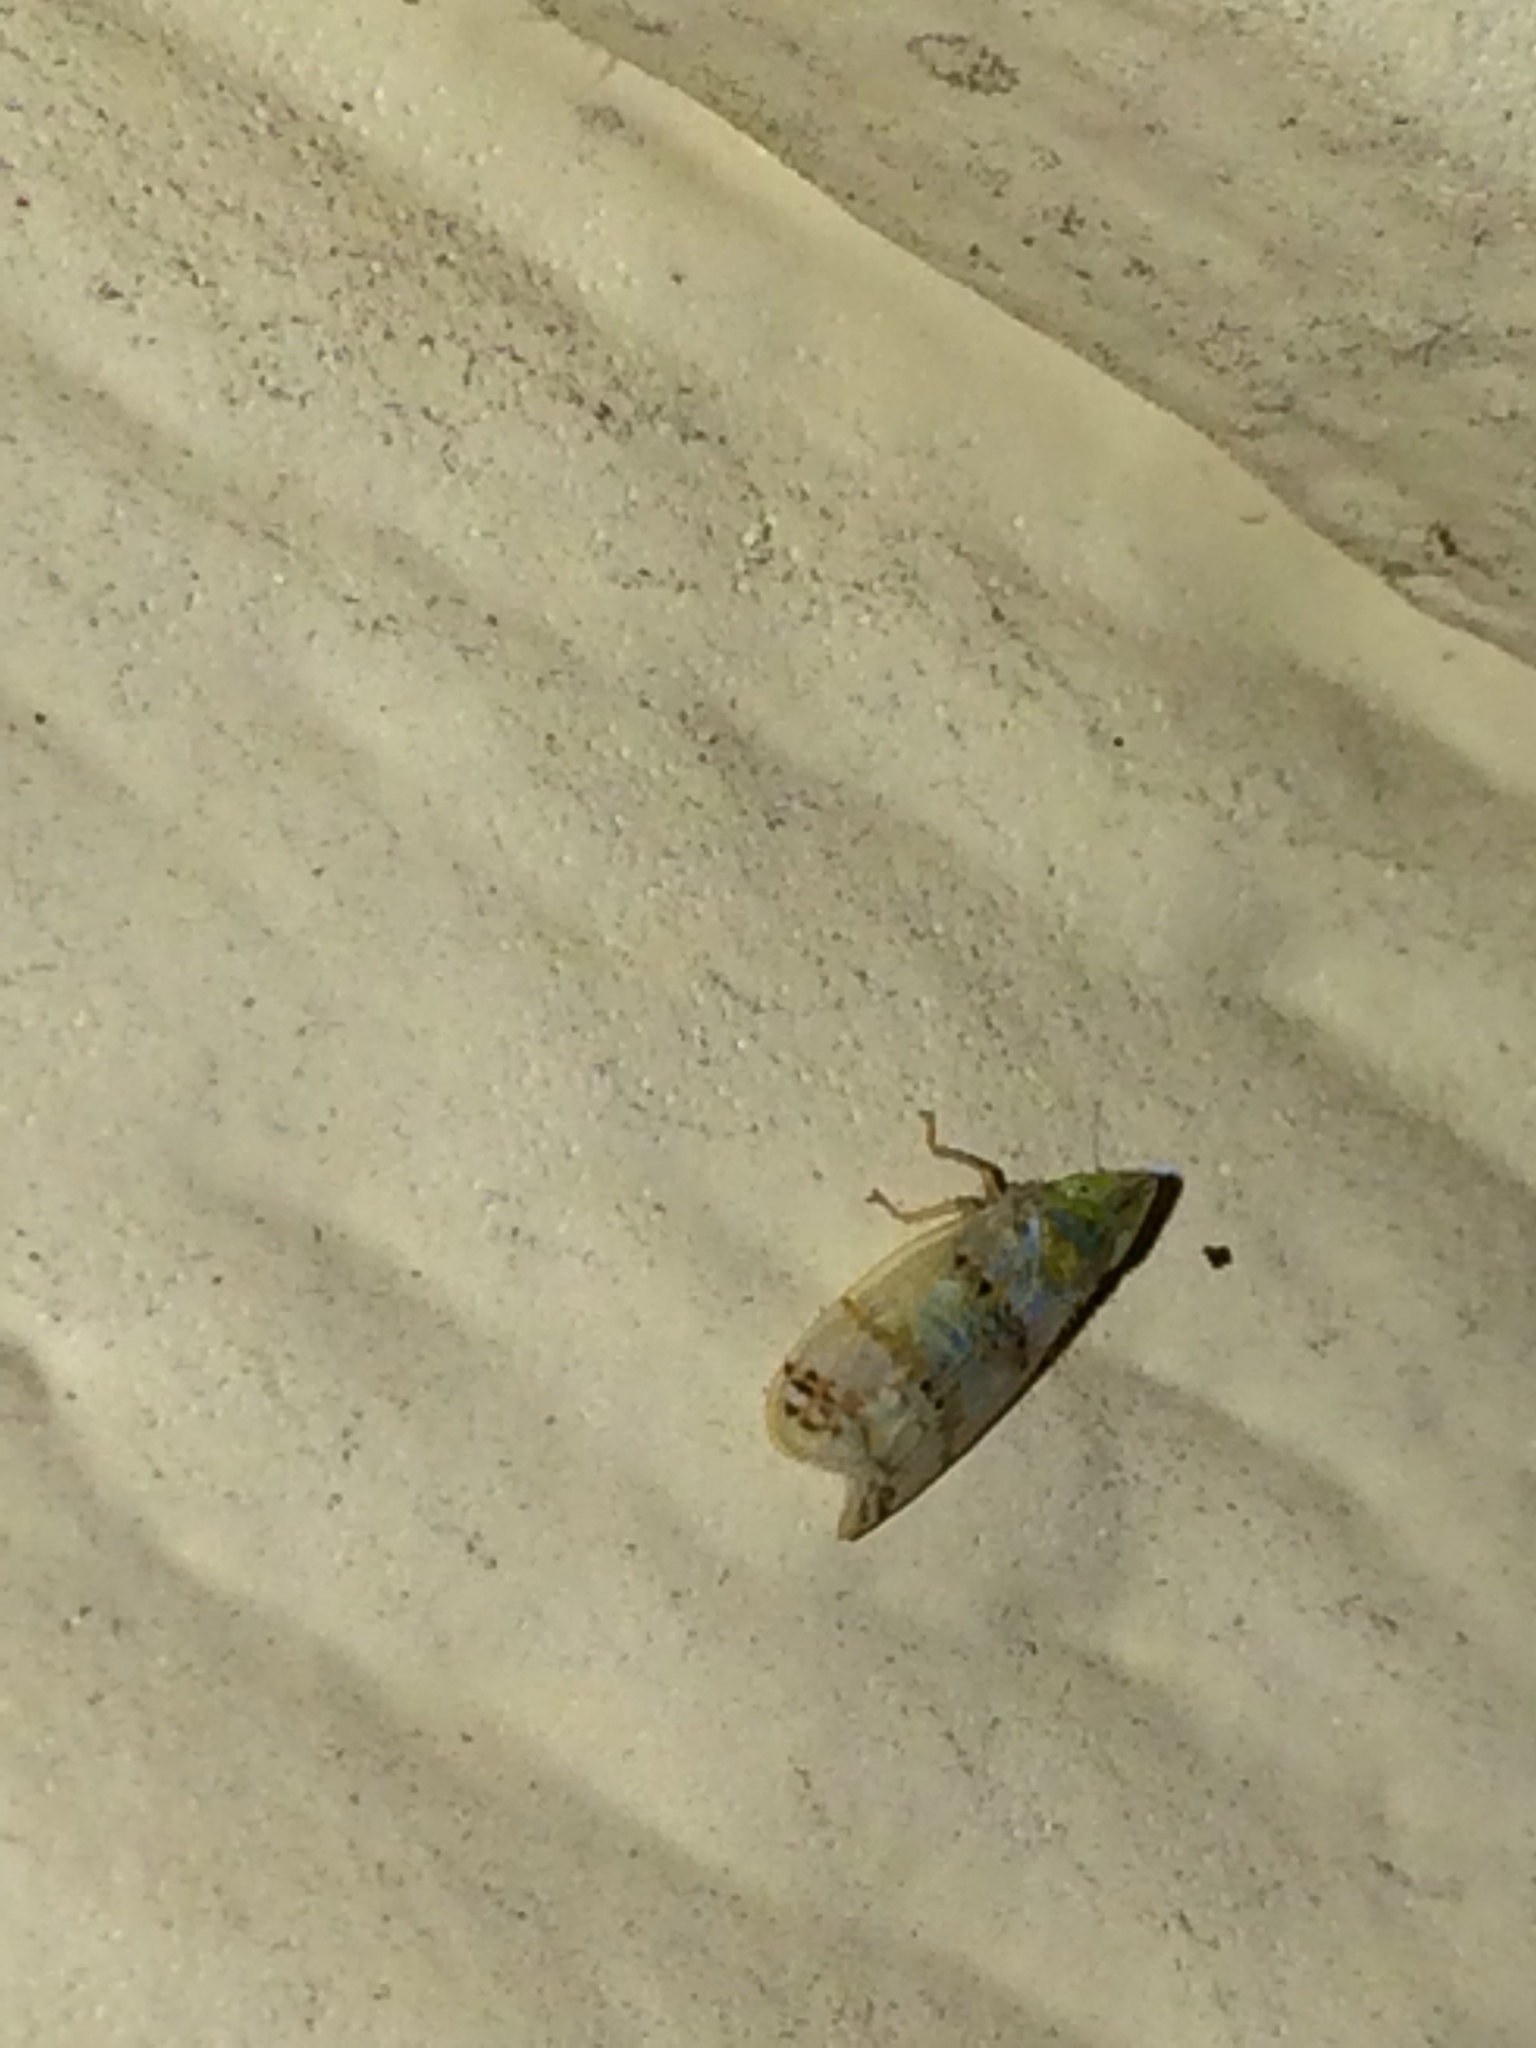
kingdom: Animalia
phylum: Arthropoda
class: Insecta
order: Hemiptera
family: Cicadellidae
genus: Japananus
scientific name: Japananus hyalinus
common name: The japanese maple leafhopper
